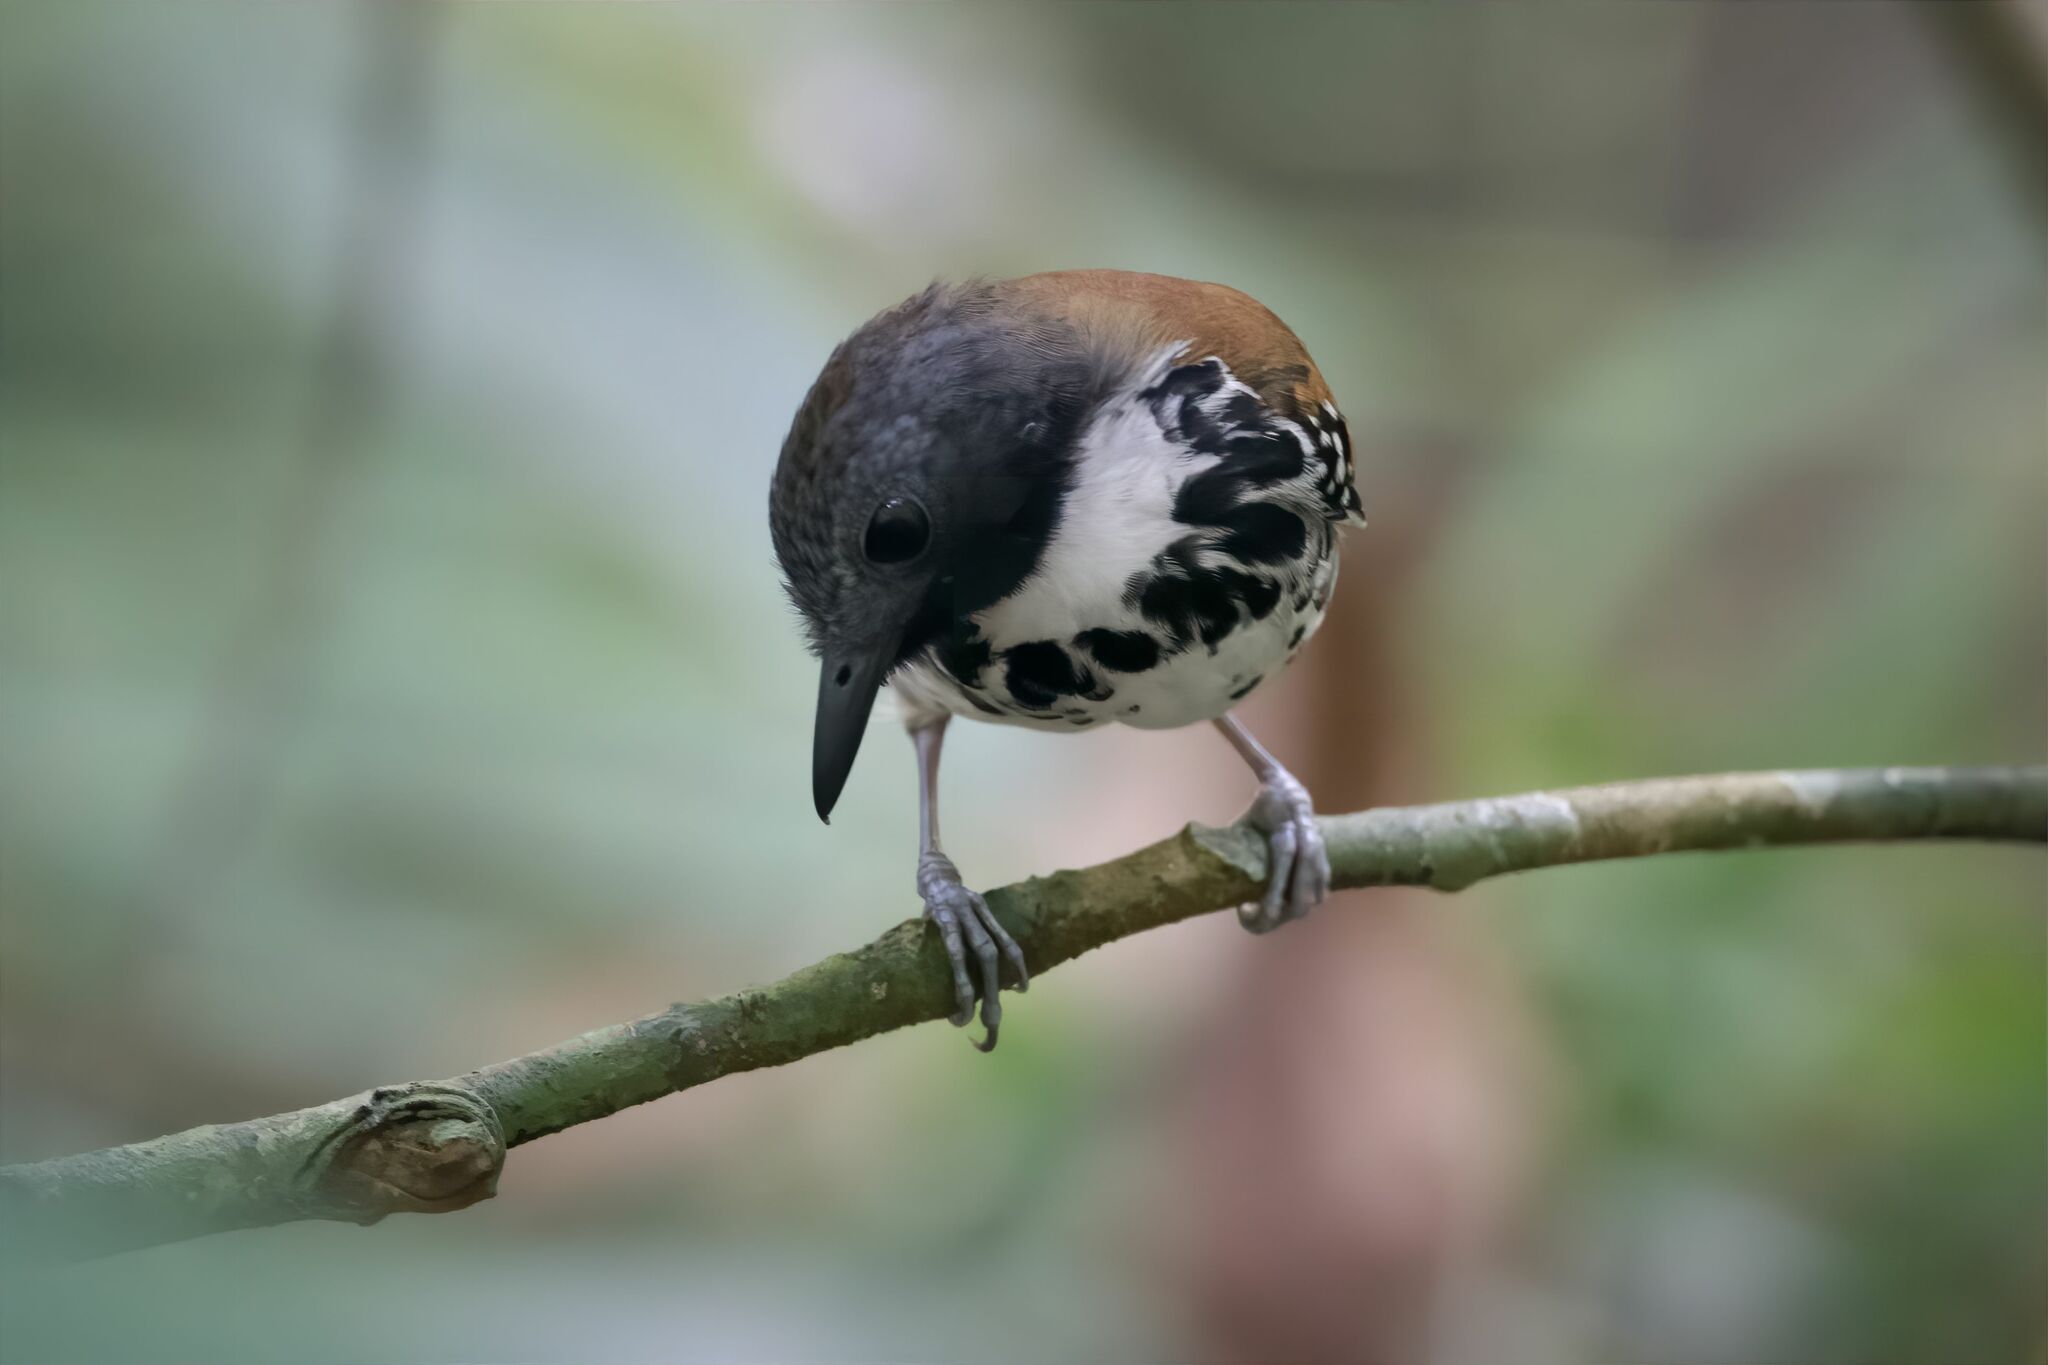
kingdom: Animalia
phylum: Chordata
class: Aves
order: Passeriformes
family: Thamnophilidae
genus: Hylophylax
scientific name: Hylophylax naevioides
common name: Spotted antbird
